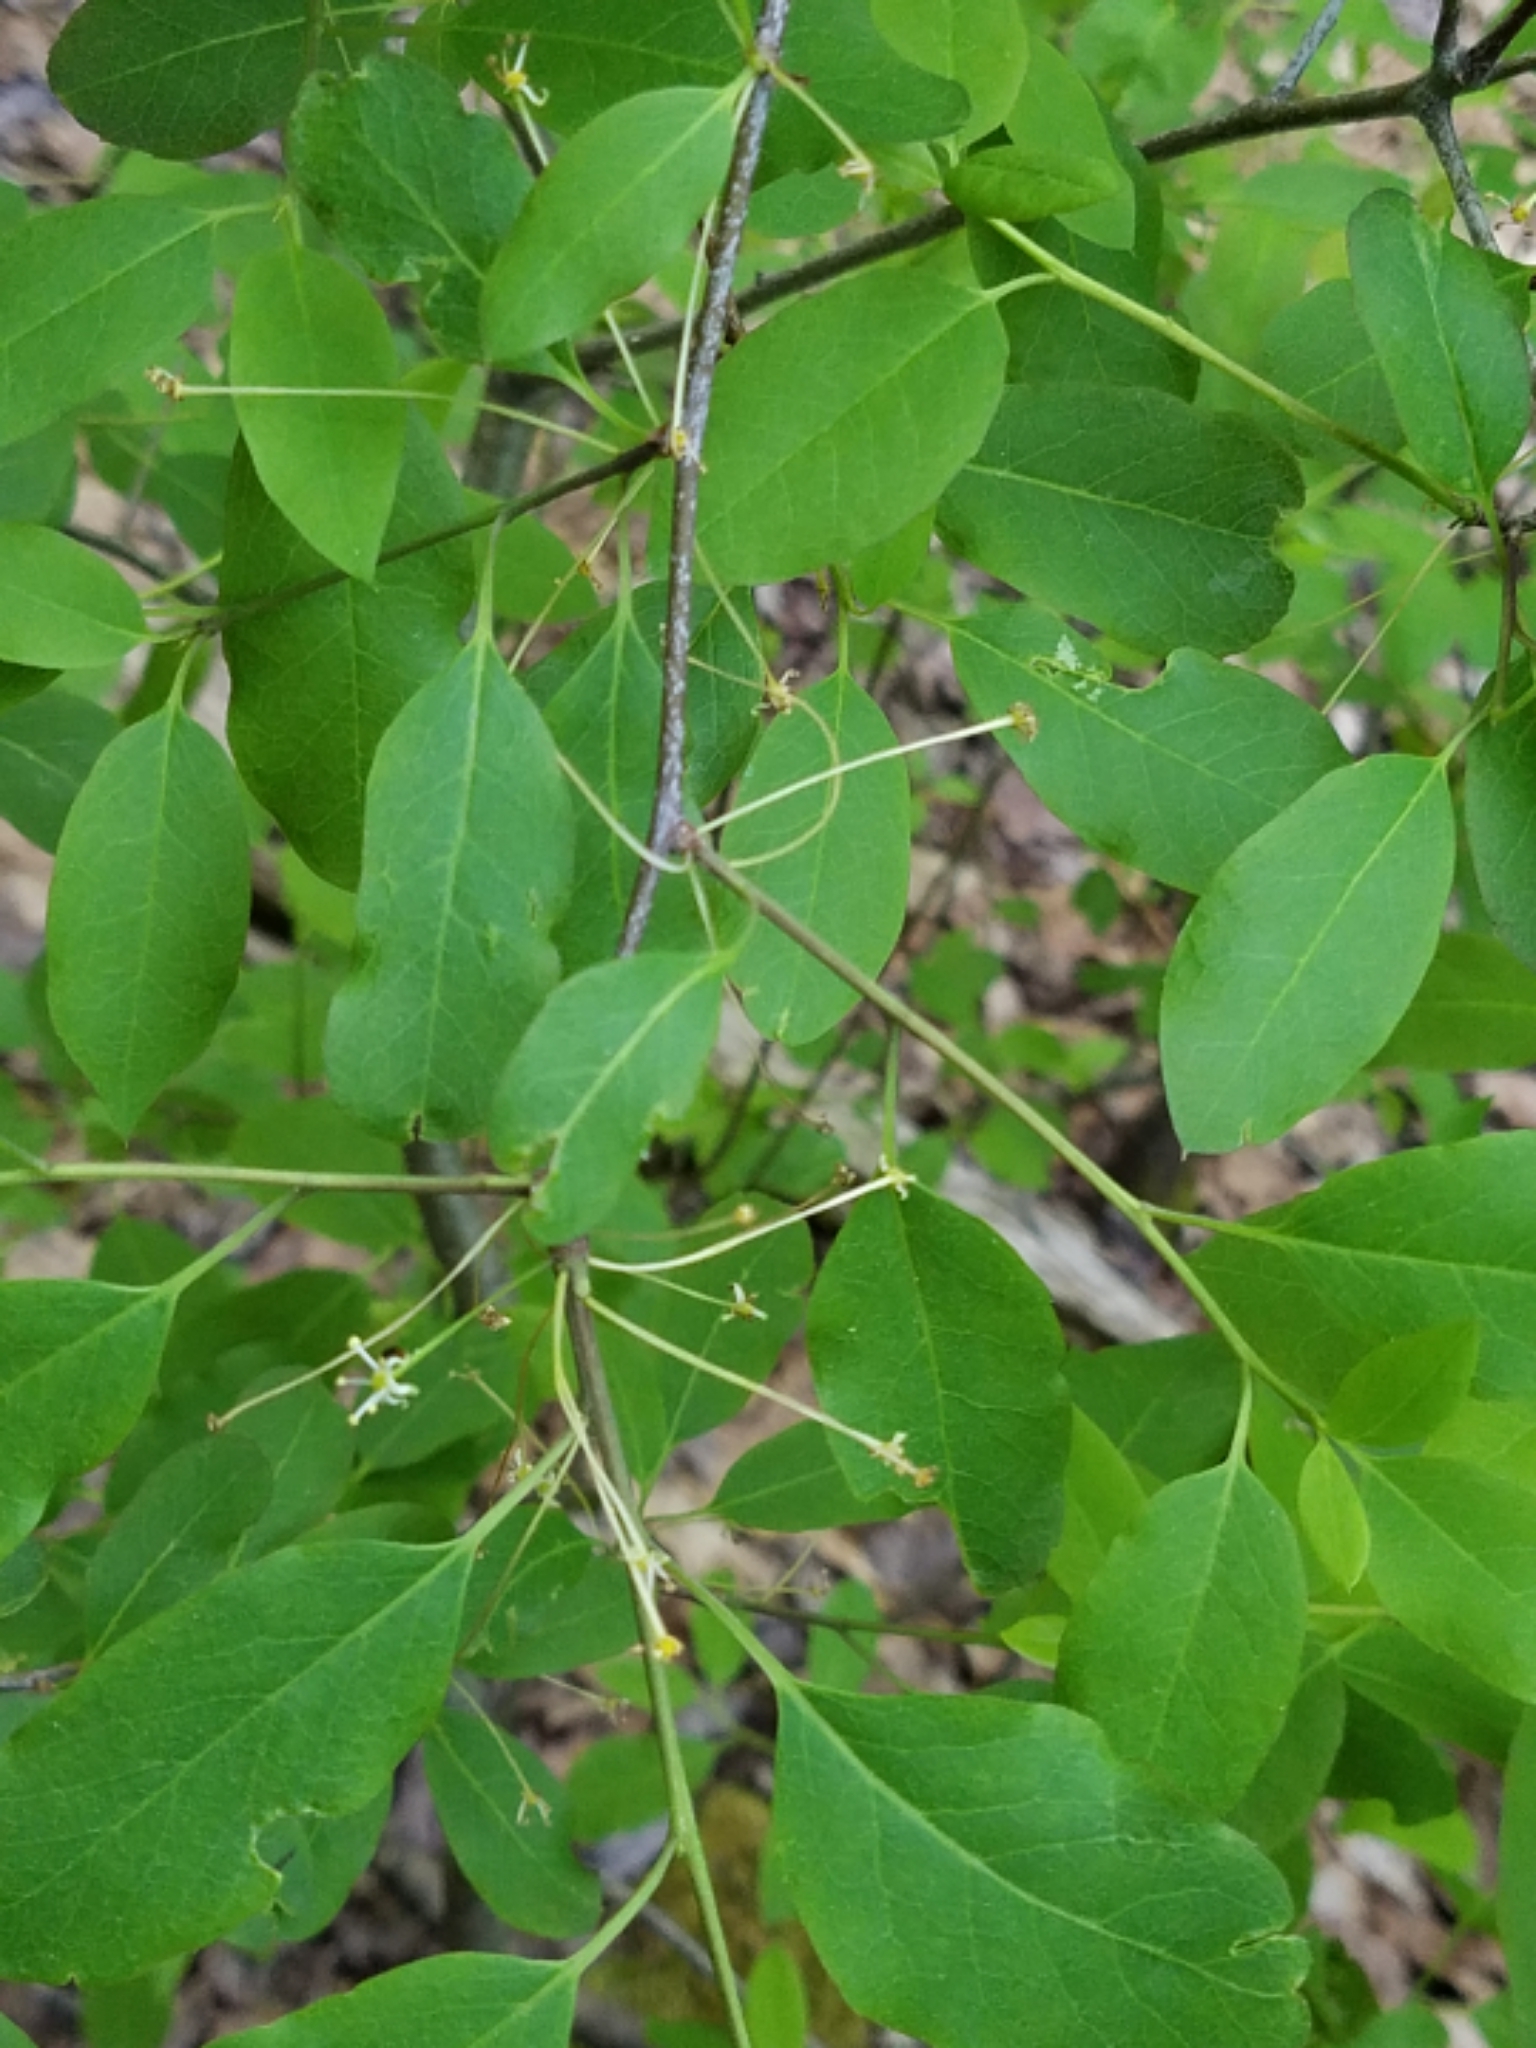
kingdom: Plantae
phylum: Tracheophyta
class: Magnoliopsida
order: Aquifoliales
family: Aquifoliaceae
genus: Ilex
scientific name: Ilex mucronata
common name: Catberry
